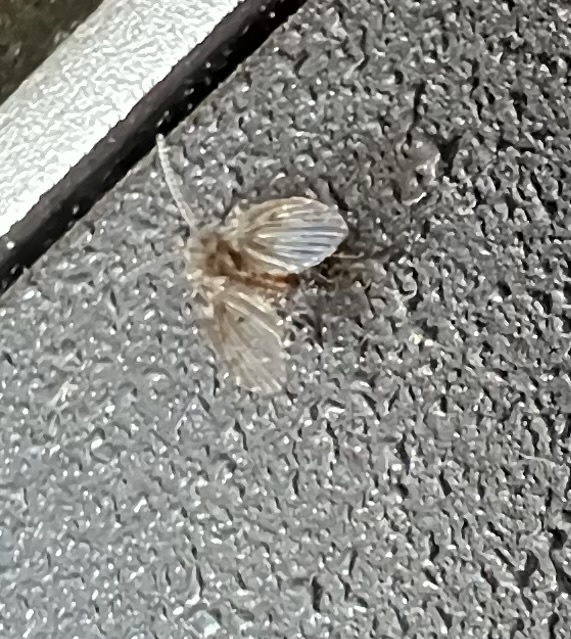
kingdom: Animalia
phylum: Arthropoda
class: Insecta
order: Diptera
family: Psychodidae
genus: Clogmia
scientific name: Clogmia albipunctatus
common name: White-spotted moth fly
